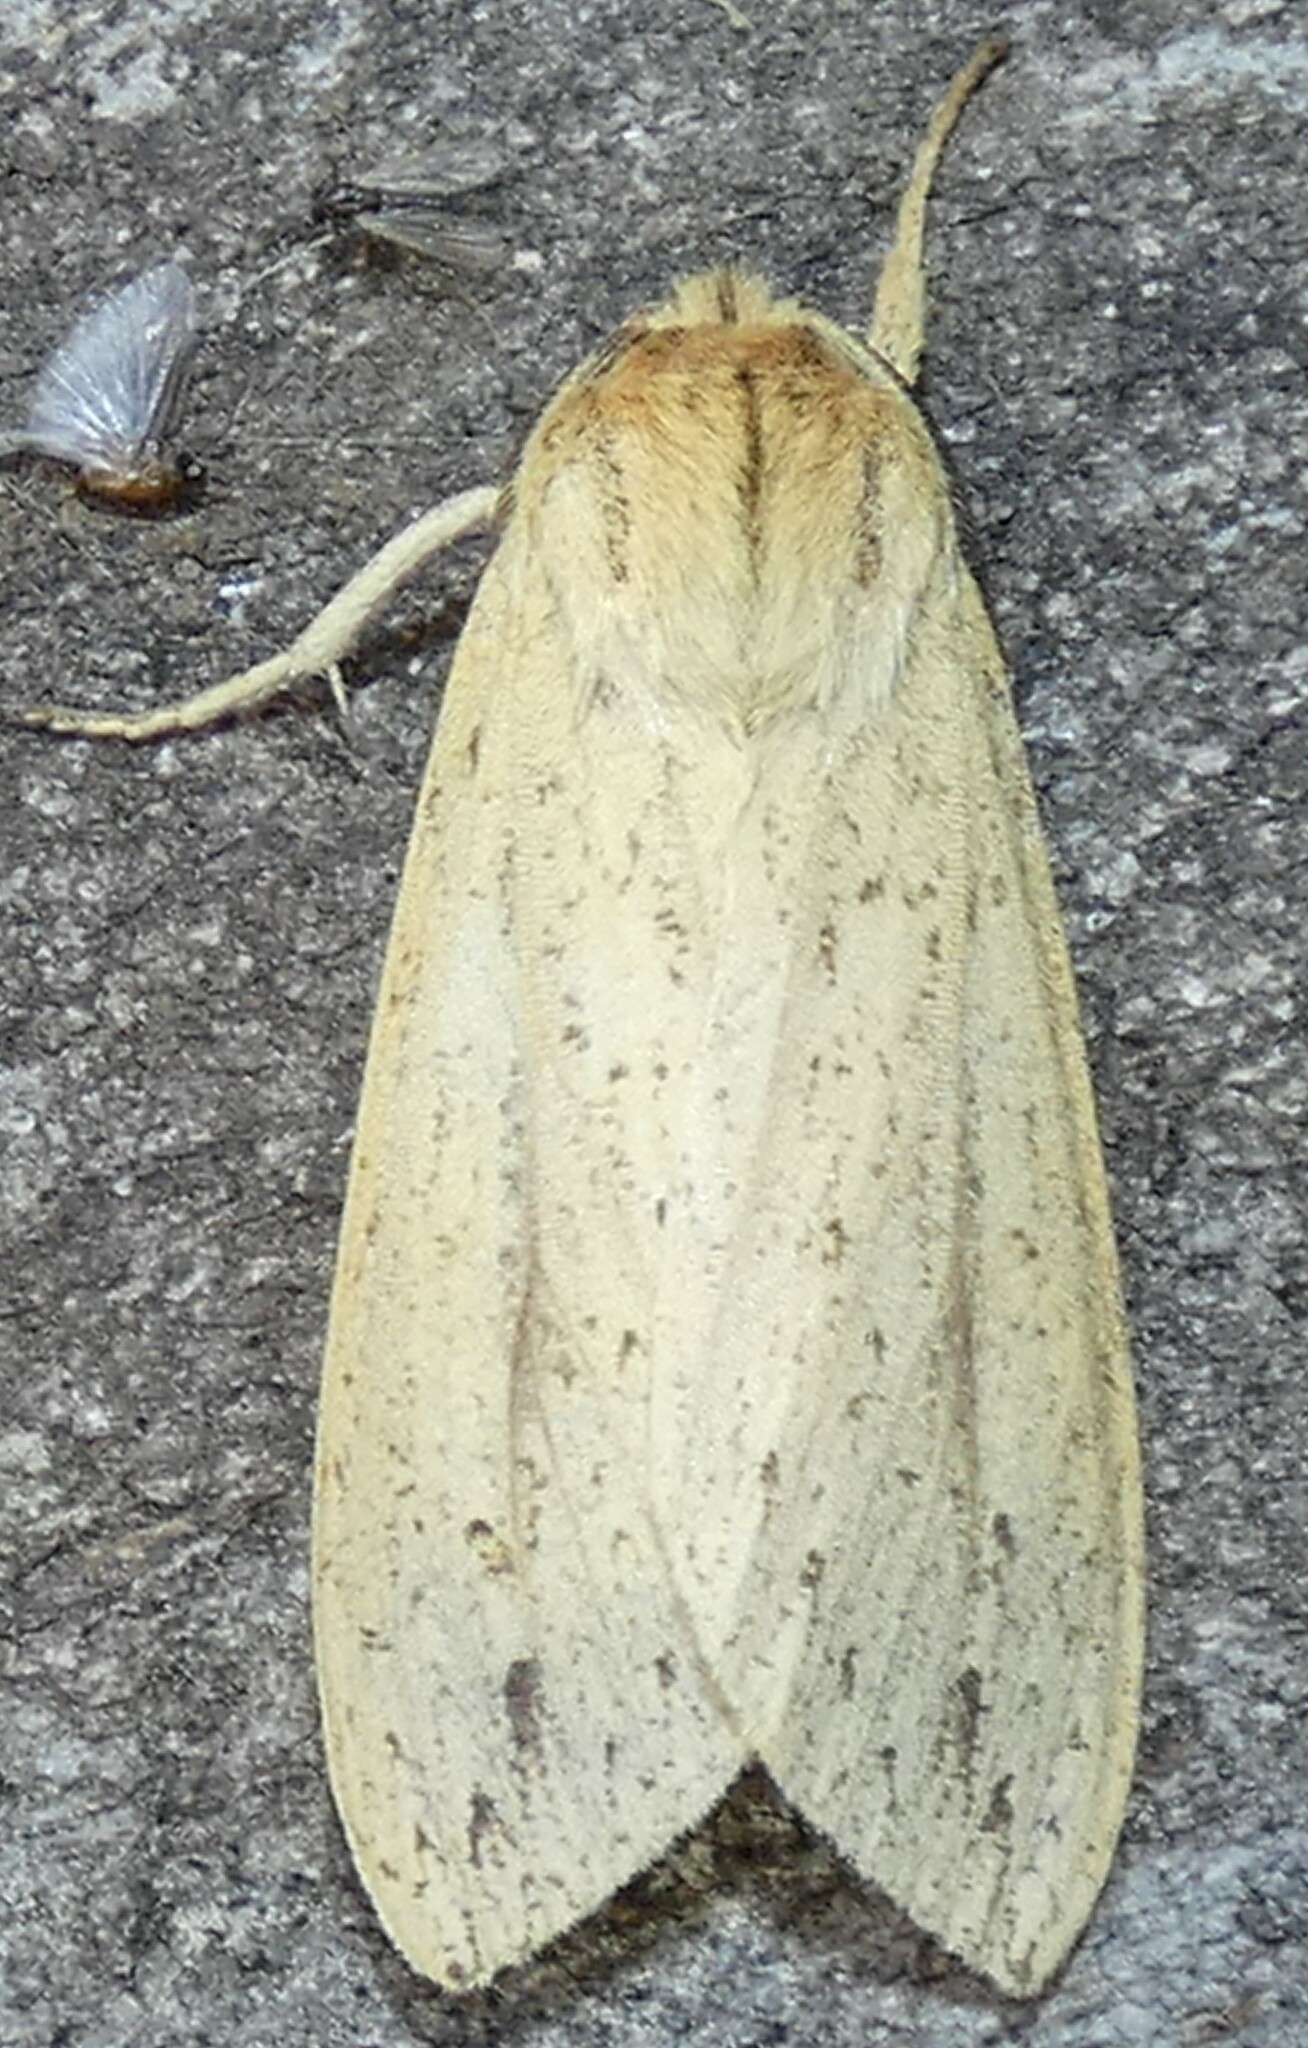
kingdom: Animalia
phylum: Arthropoda
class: Insecta
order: Lepidoptera
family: Erebidae
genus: Leucanopsis
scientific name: Leucanopsis longa
